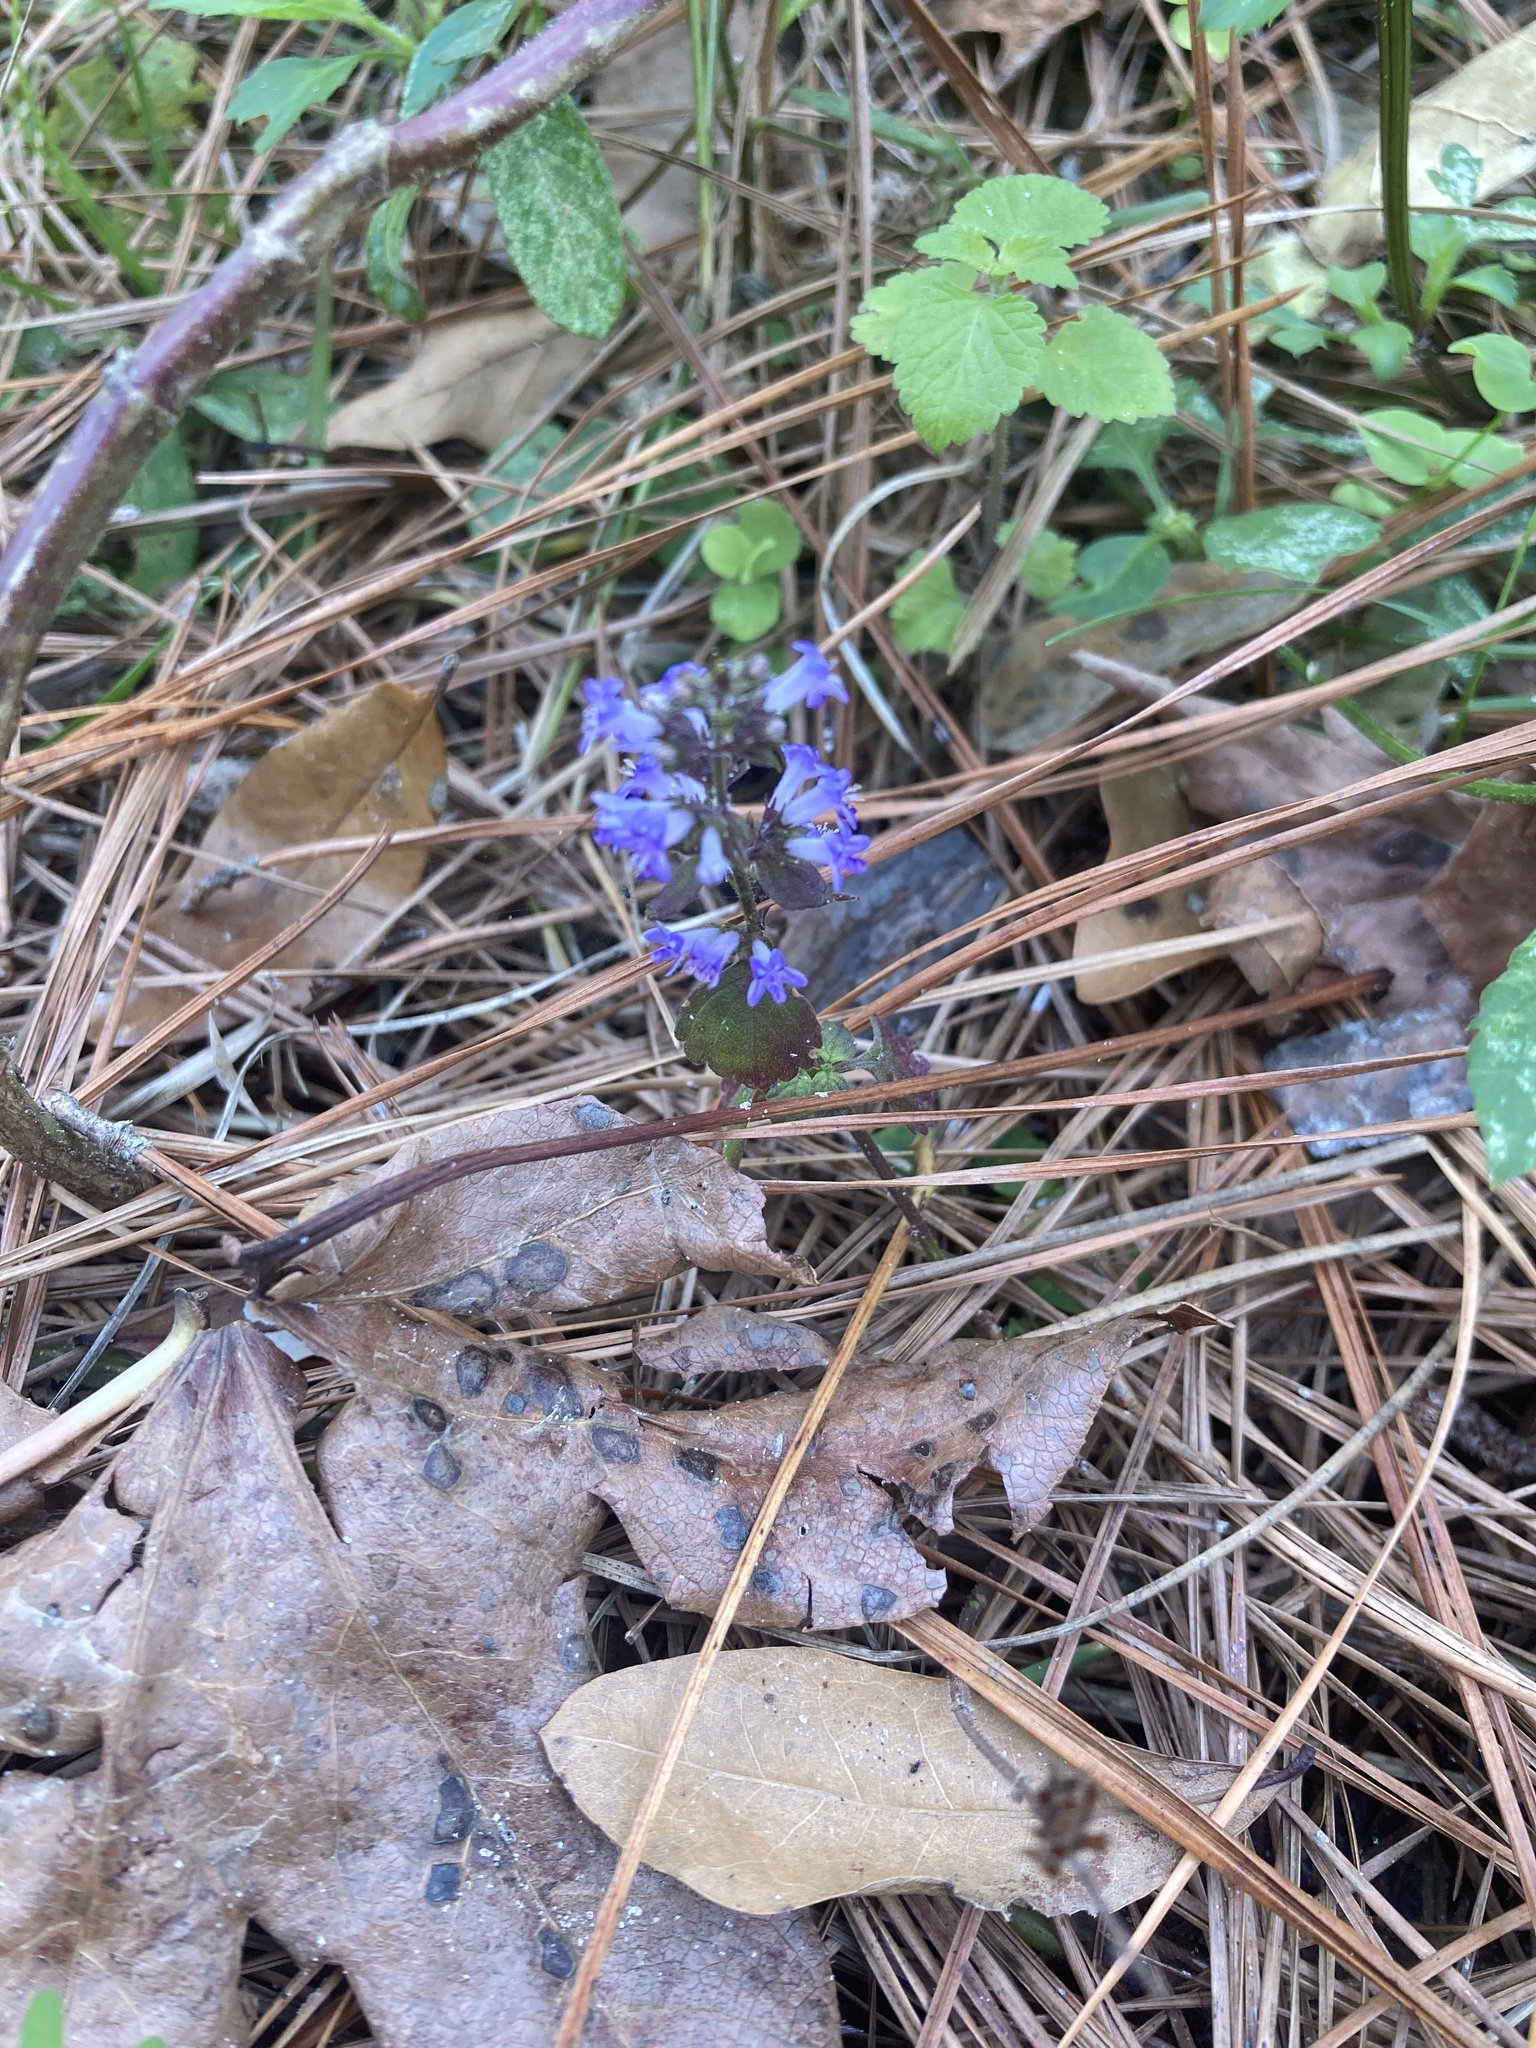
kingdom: Plantae
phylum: Tracheophyta
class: Magnoliopsida
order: Lamiales
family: Lamiaceae
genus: Cantinoa
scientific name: Cantinoa mutabilis
